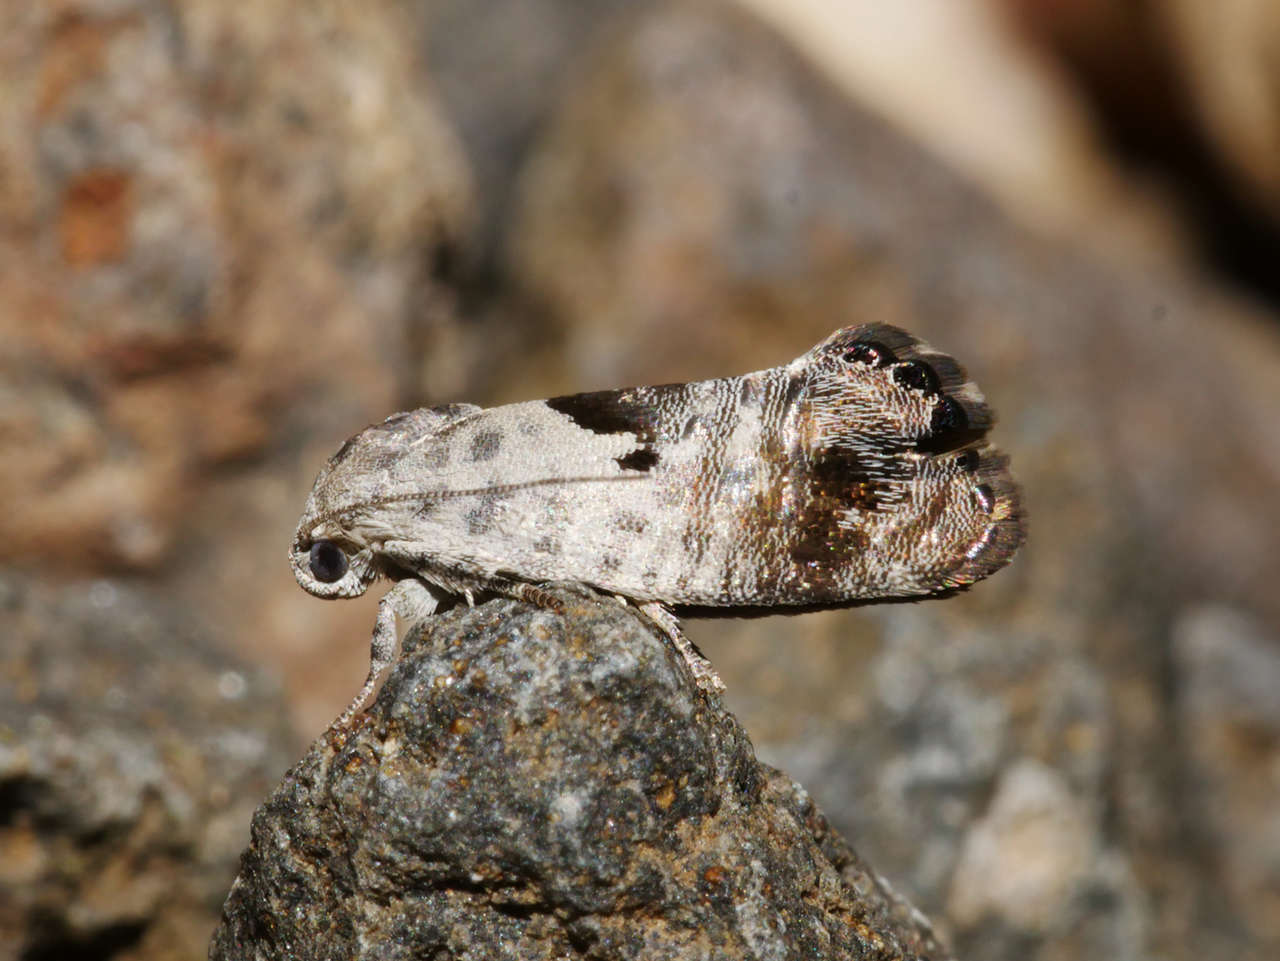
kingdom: Animalia
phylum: Arthropoda
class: Insecta
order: Lepidoptera
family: Depressariidae
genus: Eupselia
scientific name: Eupselia carpocapsella
